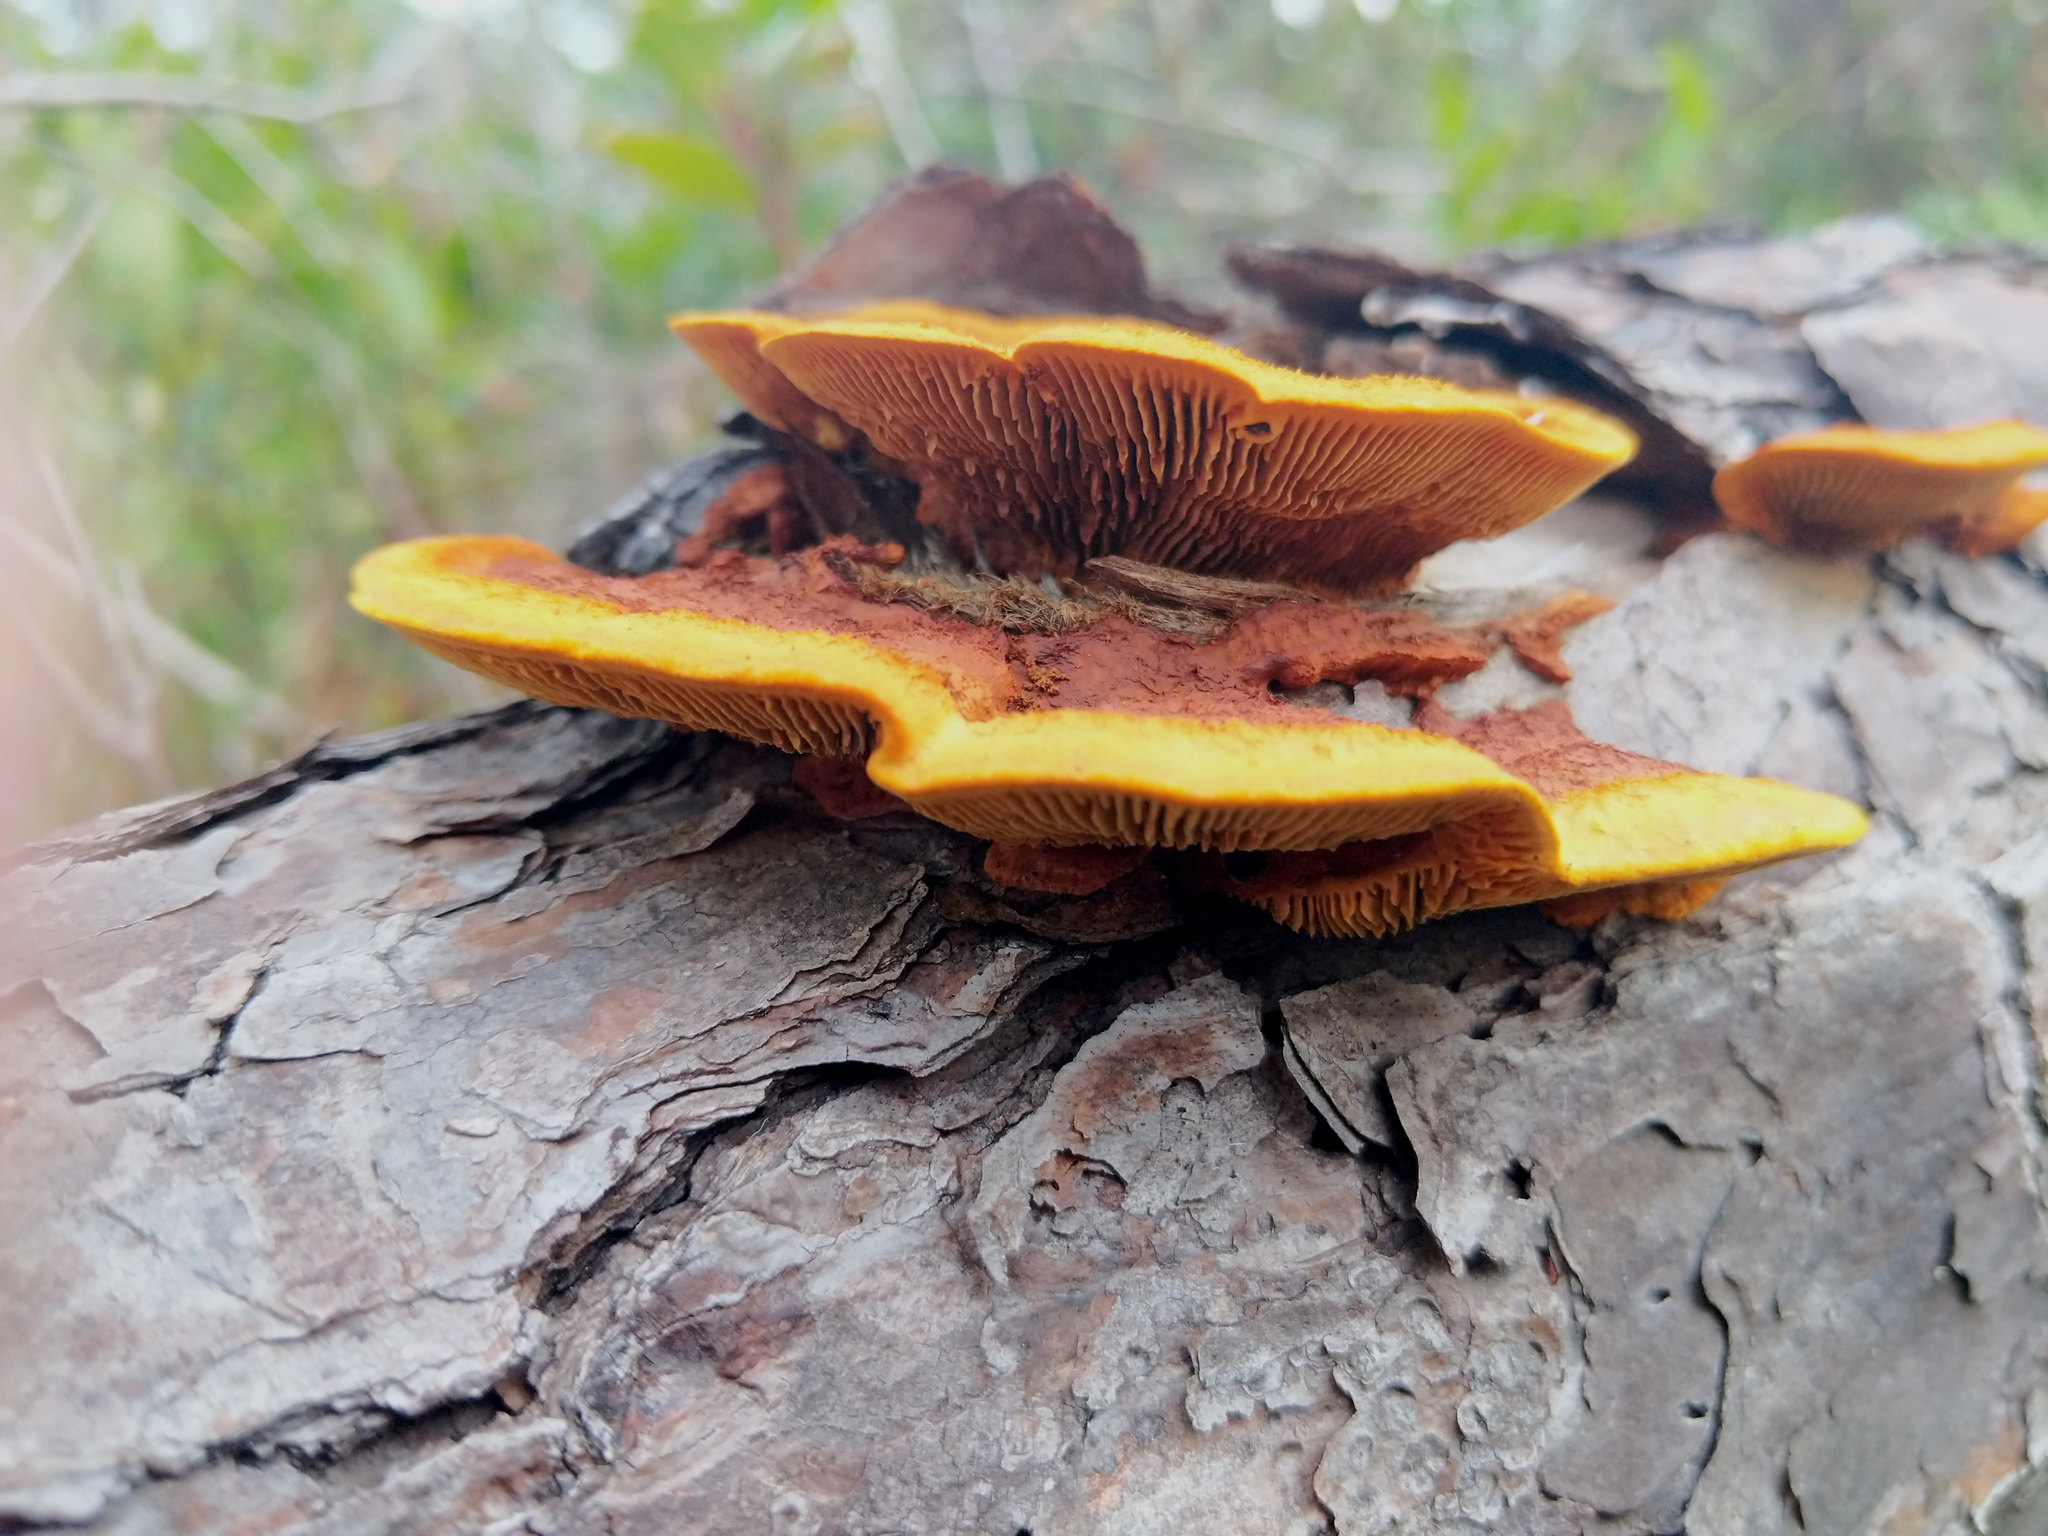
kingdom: Fungi
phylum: Basidiomycota
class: Agaricomycetes
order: Gloeophyllales
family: Gloeophyllaceae
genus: Gloeophyllum
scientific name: Gloeophyllum sepiarium
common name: Conifer mazegill
